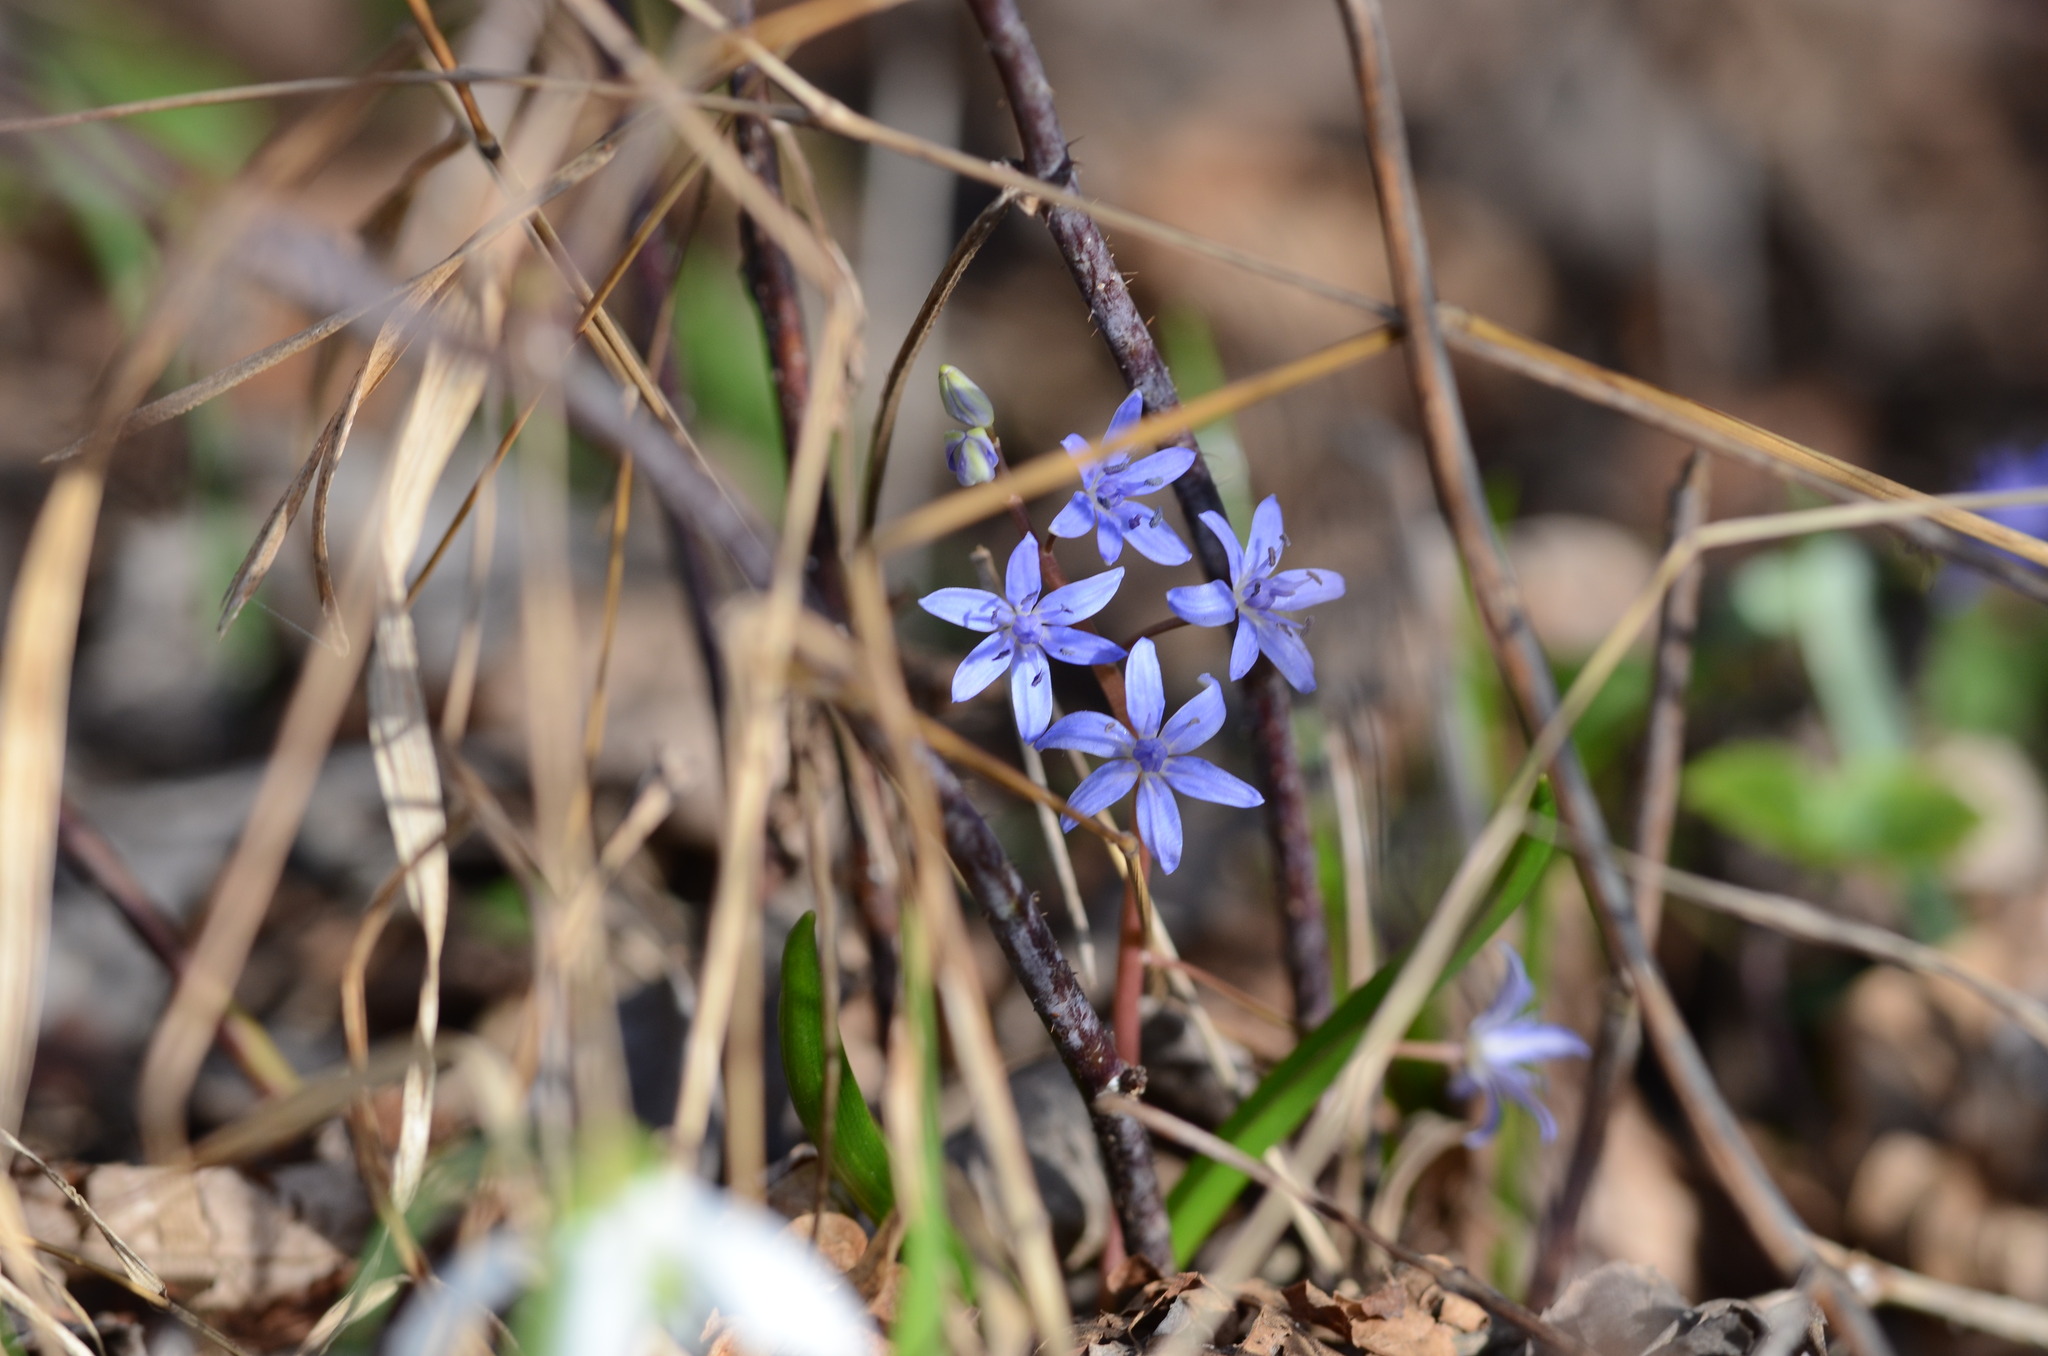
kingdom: Plantae
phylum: Tracheophyta
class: Liliopsida
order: Asparagales
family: Asparagaceae
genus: Scilla
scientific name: Scilla vindobonensis
